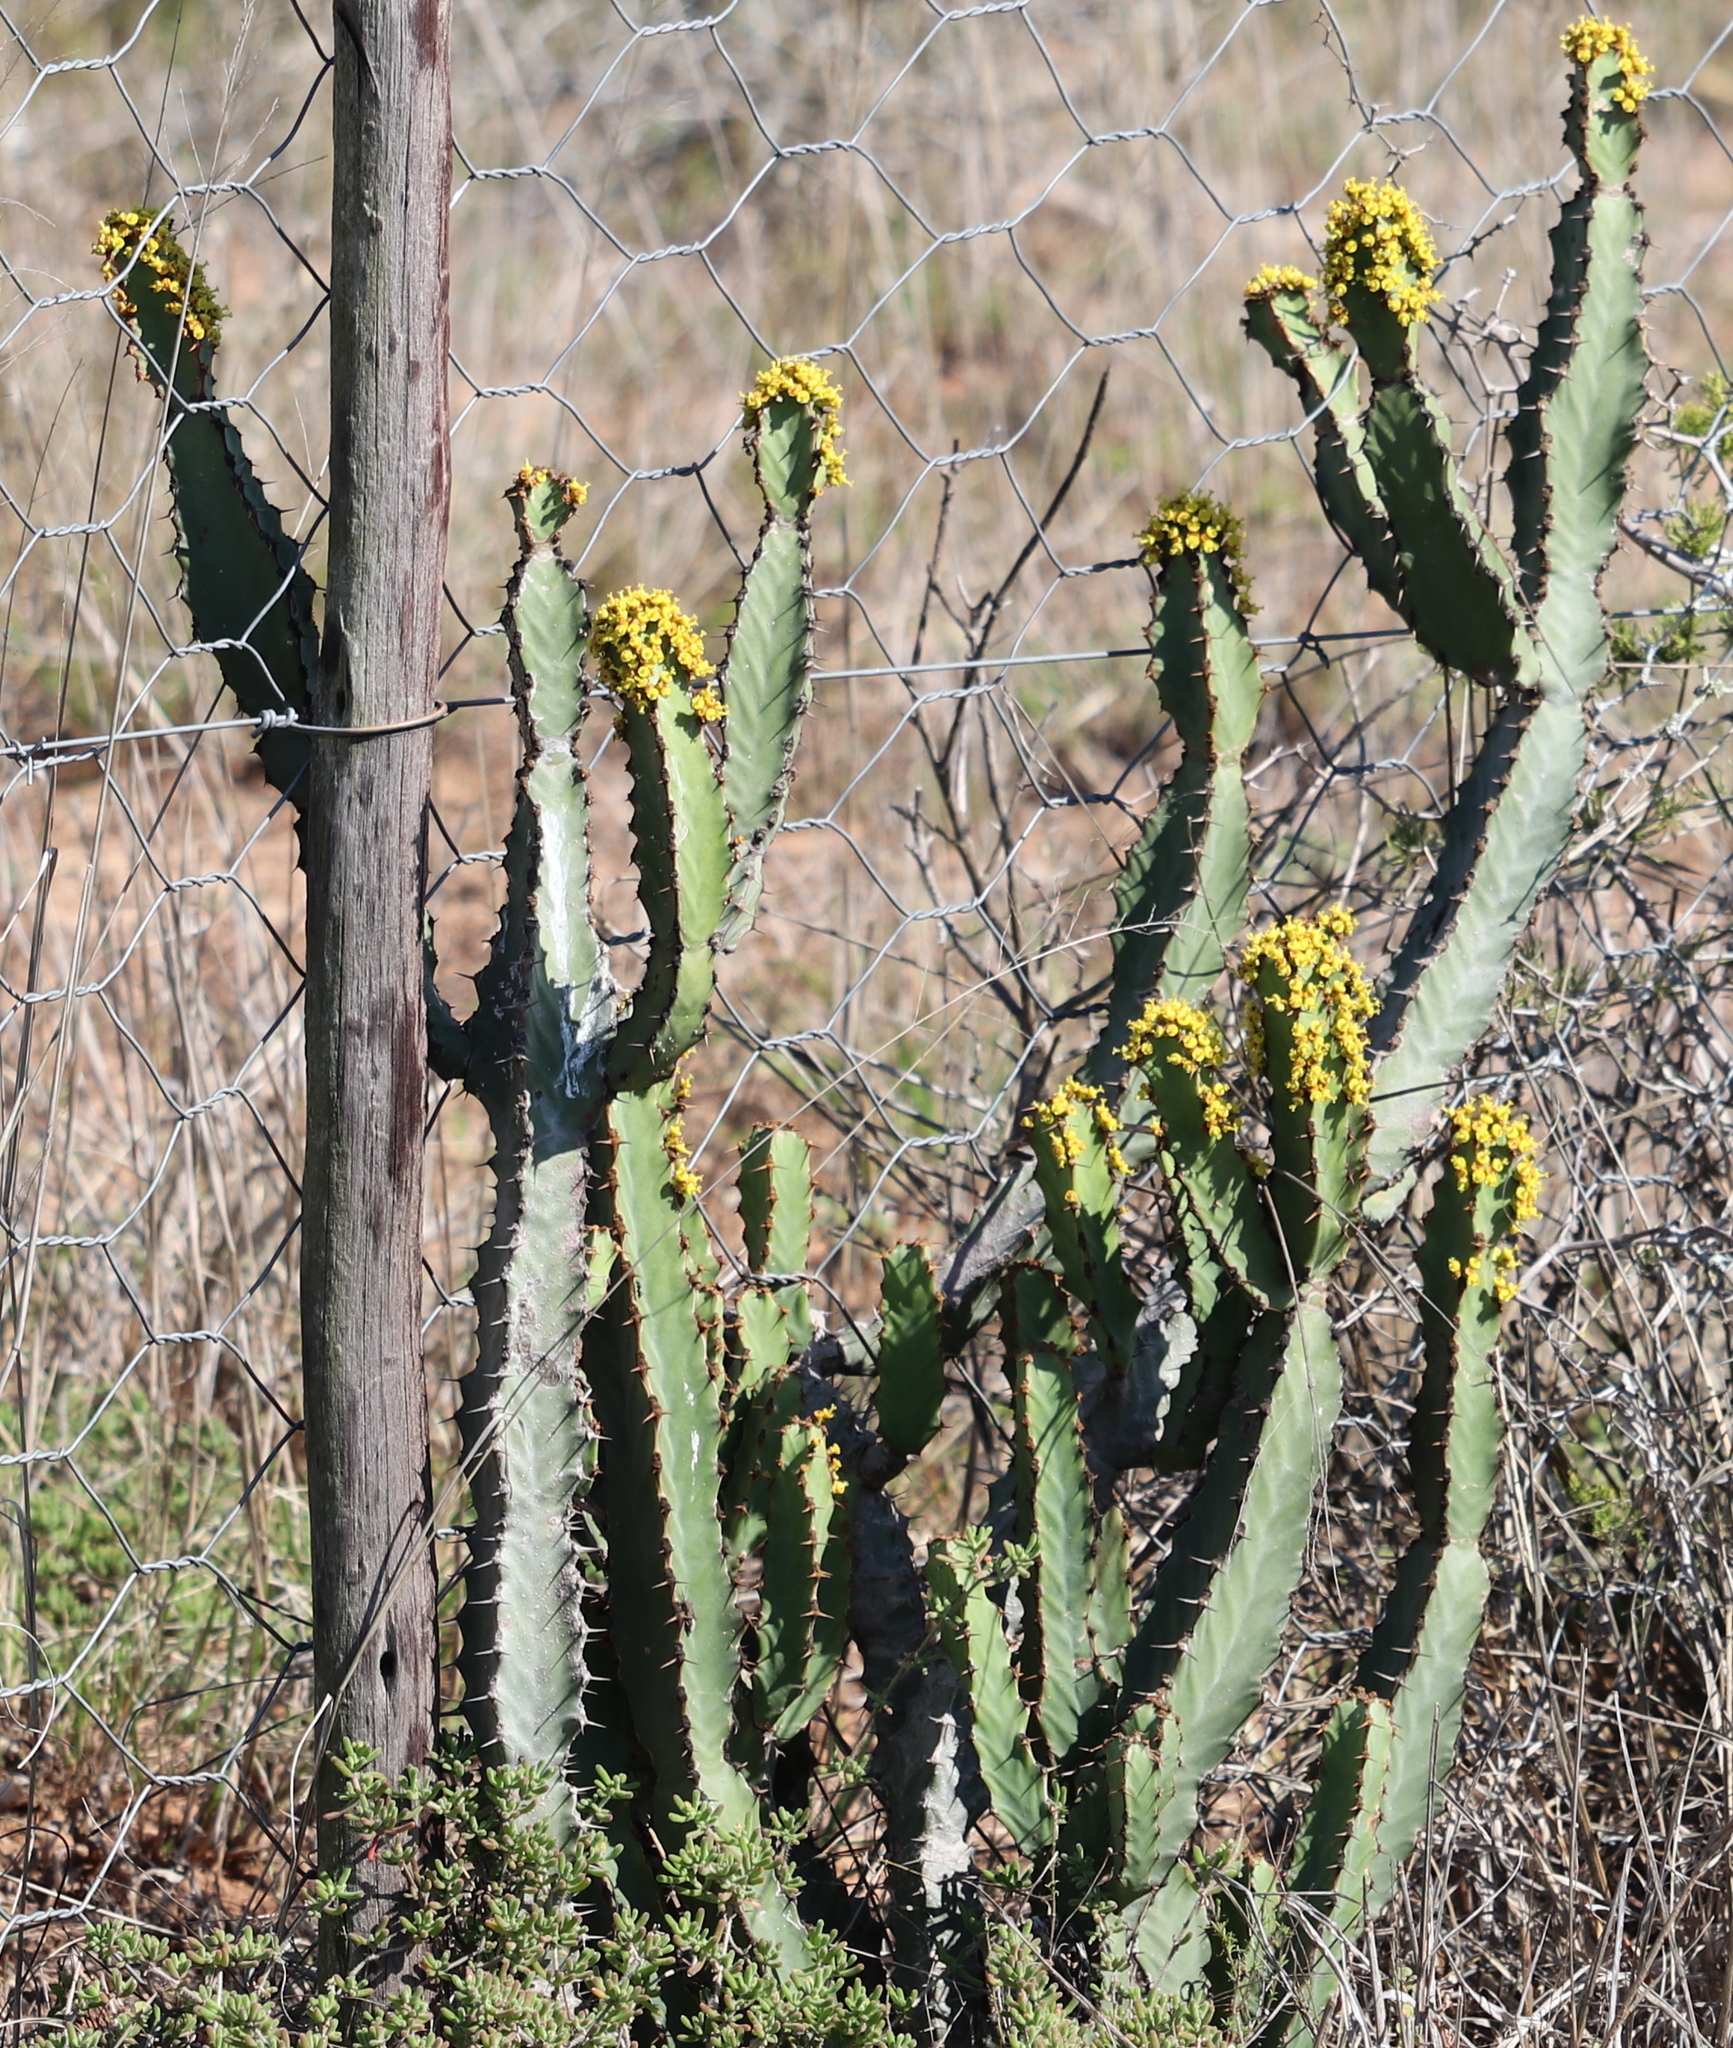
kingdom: Plantae
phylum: Tracheophyta
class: Magnoliopsida
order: Malpighiales
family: Euphorbiaceae
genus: Euphorbia
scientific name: Euphorbia caerulescens
